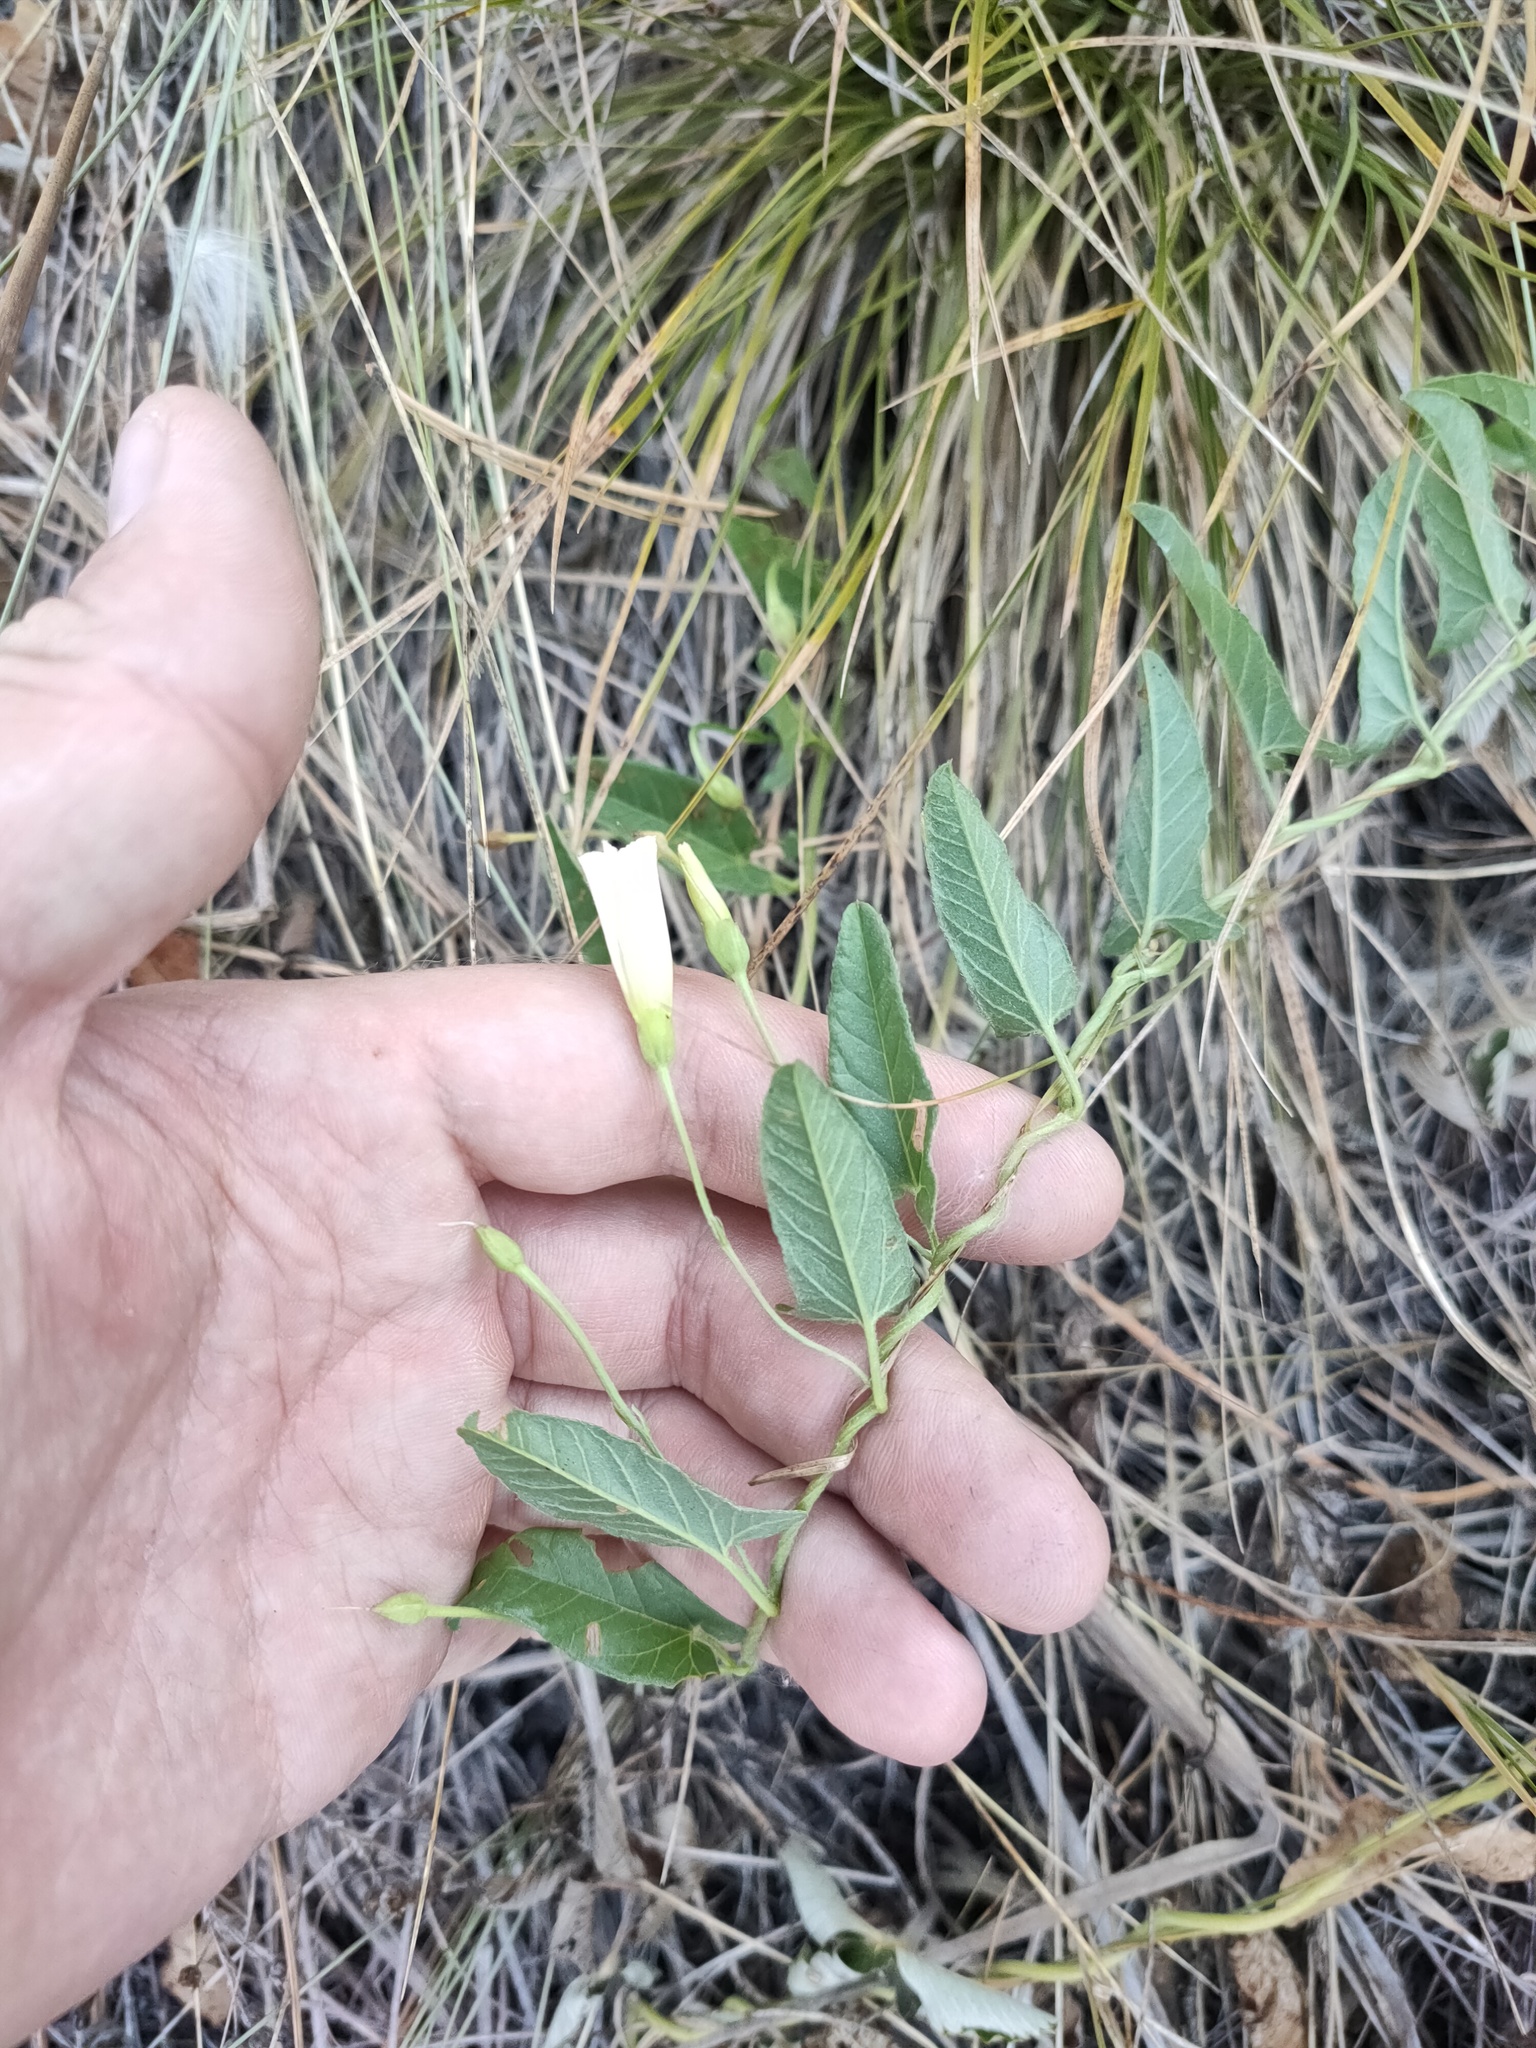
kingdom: Plantae
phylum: Tracheophyta
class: Magnoliopsida
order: Solanales
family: Convolvulaceae
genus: Convolvulus
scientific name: Convolvulus arvensis
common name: Field bindweed
